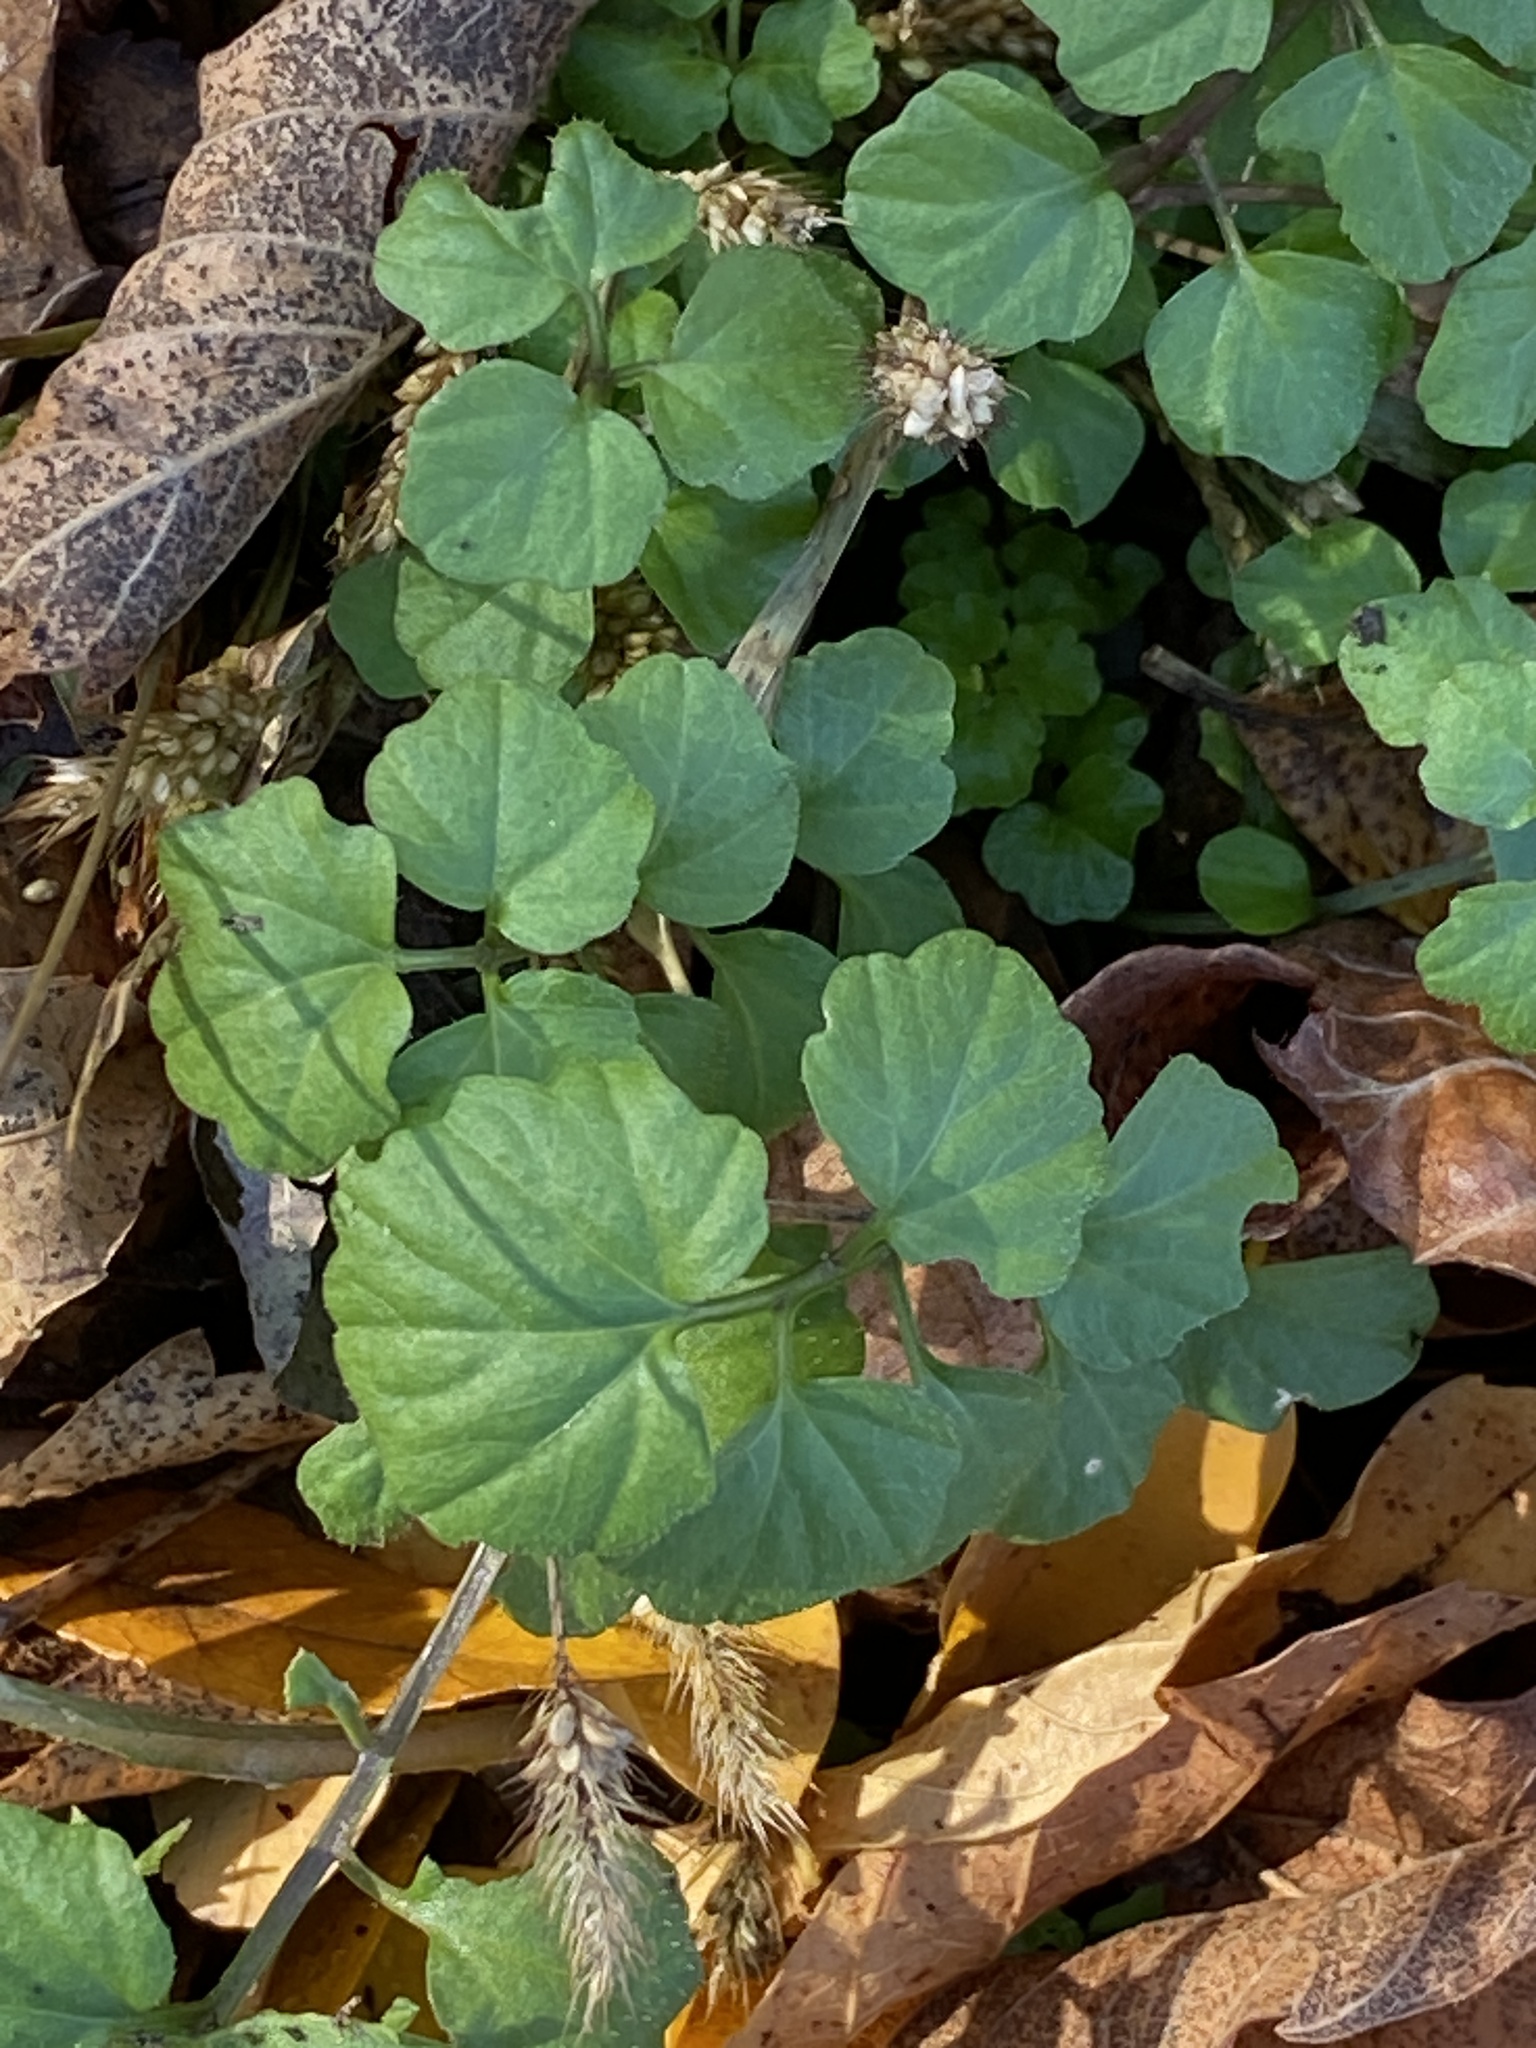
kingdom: Plantae
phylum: Tracheophyta
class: Magnoliopsida
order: Brassicales
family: Brassicaceae
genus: Cardamine
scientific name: Cardamine hirsuta
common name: Hairy bittercress
